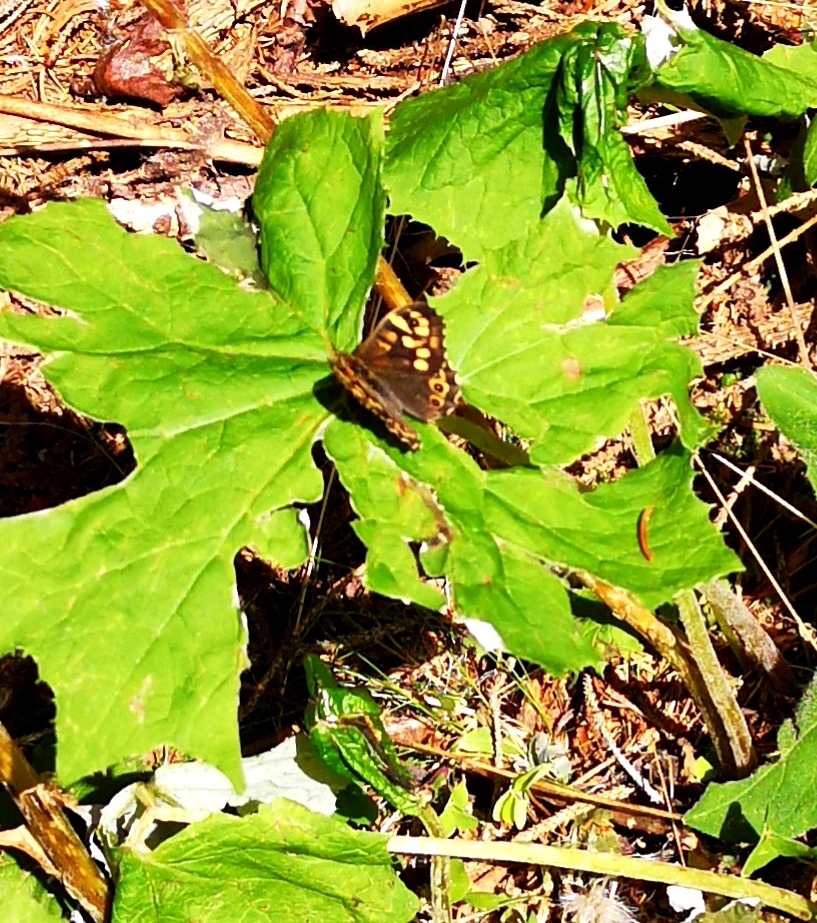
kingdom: Animalia
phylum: Arthropoda
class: Insecta
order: Lepidoptera
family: Nymphalidae
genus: Pararge
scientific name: Pararge aegeria
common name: Speckled wood
